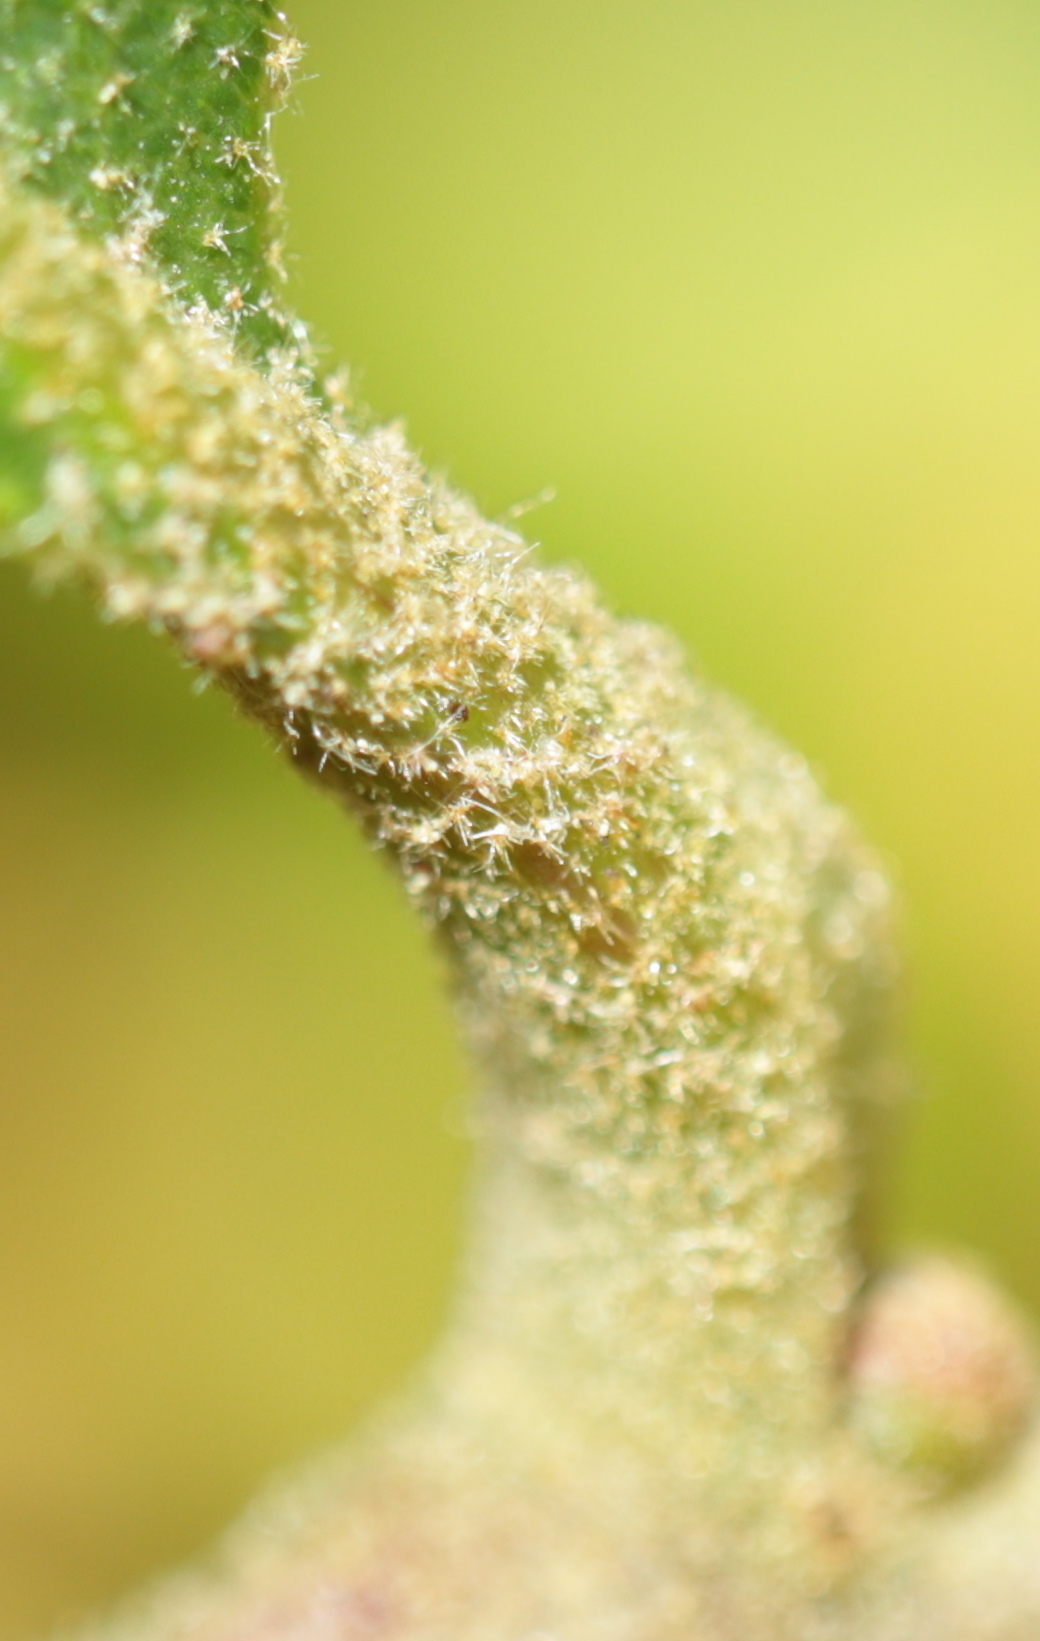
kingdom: Plantae
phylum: Tracheophyta
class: Magnoliopsida
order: Fagales
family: Fagaceae
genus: Quercus
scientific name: Quercus stellata
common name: Post oak
